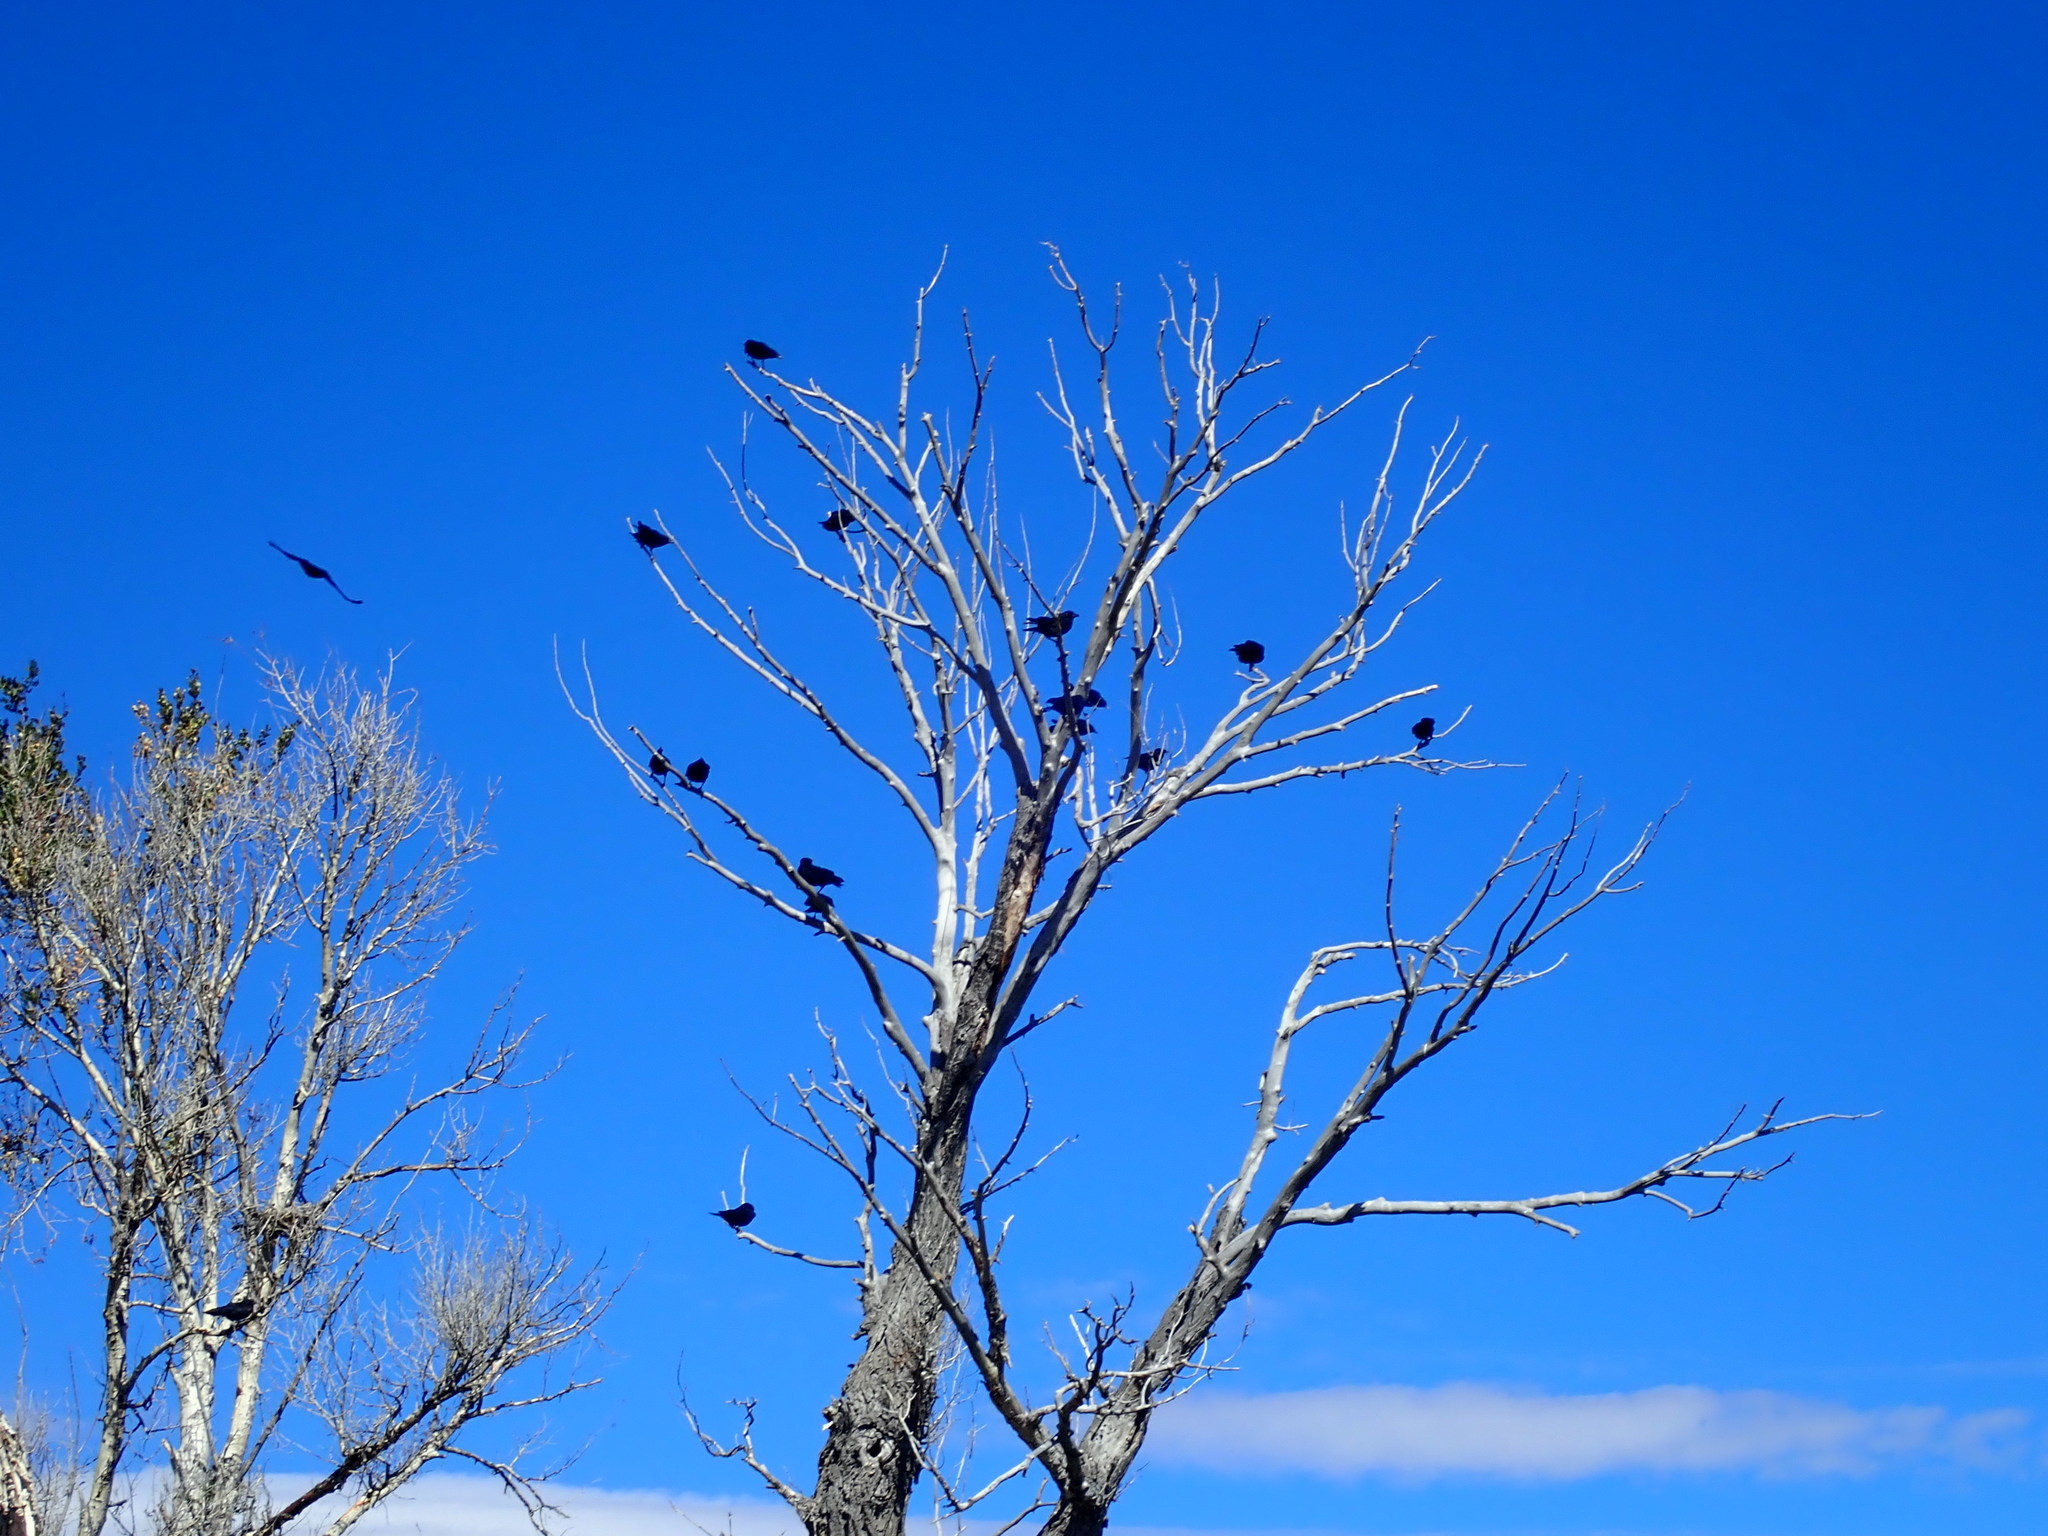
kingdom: Animalia
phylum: Chordata
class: Aves
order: Passeriformes
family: Corvidae
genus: Corvus
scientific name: Corvus brachyrhynchos
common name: American crow
